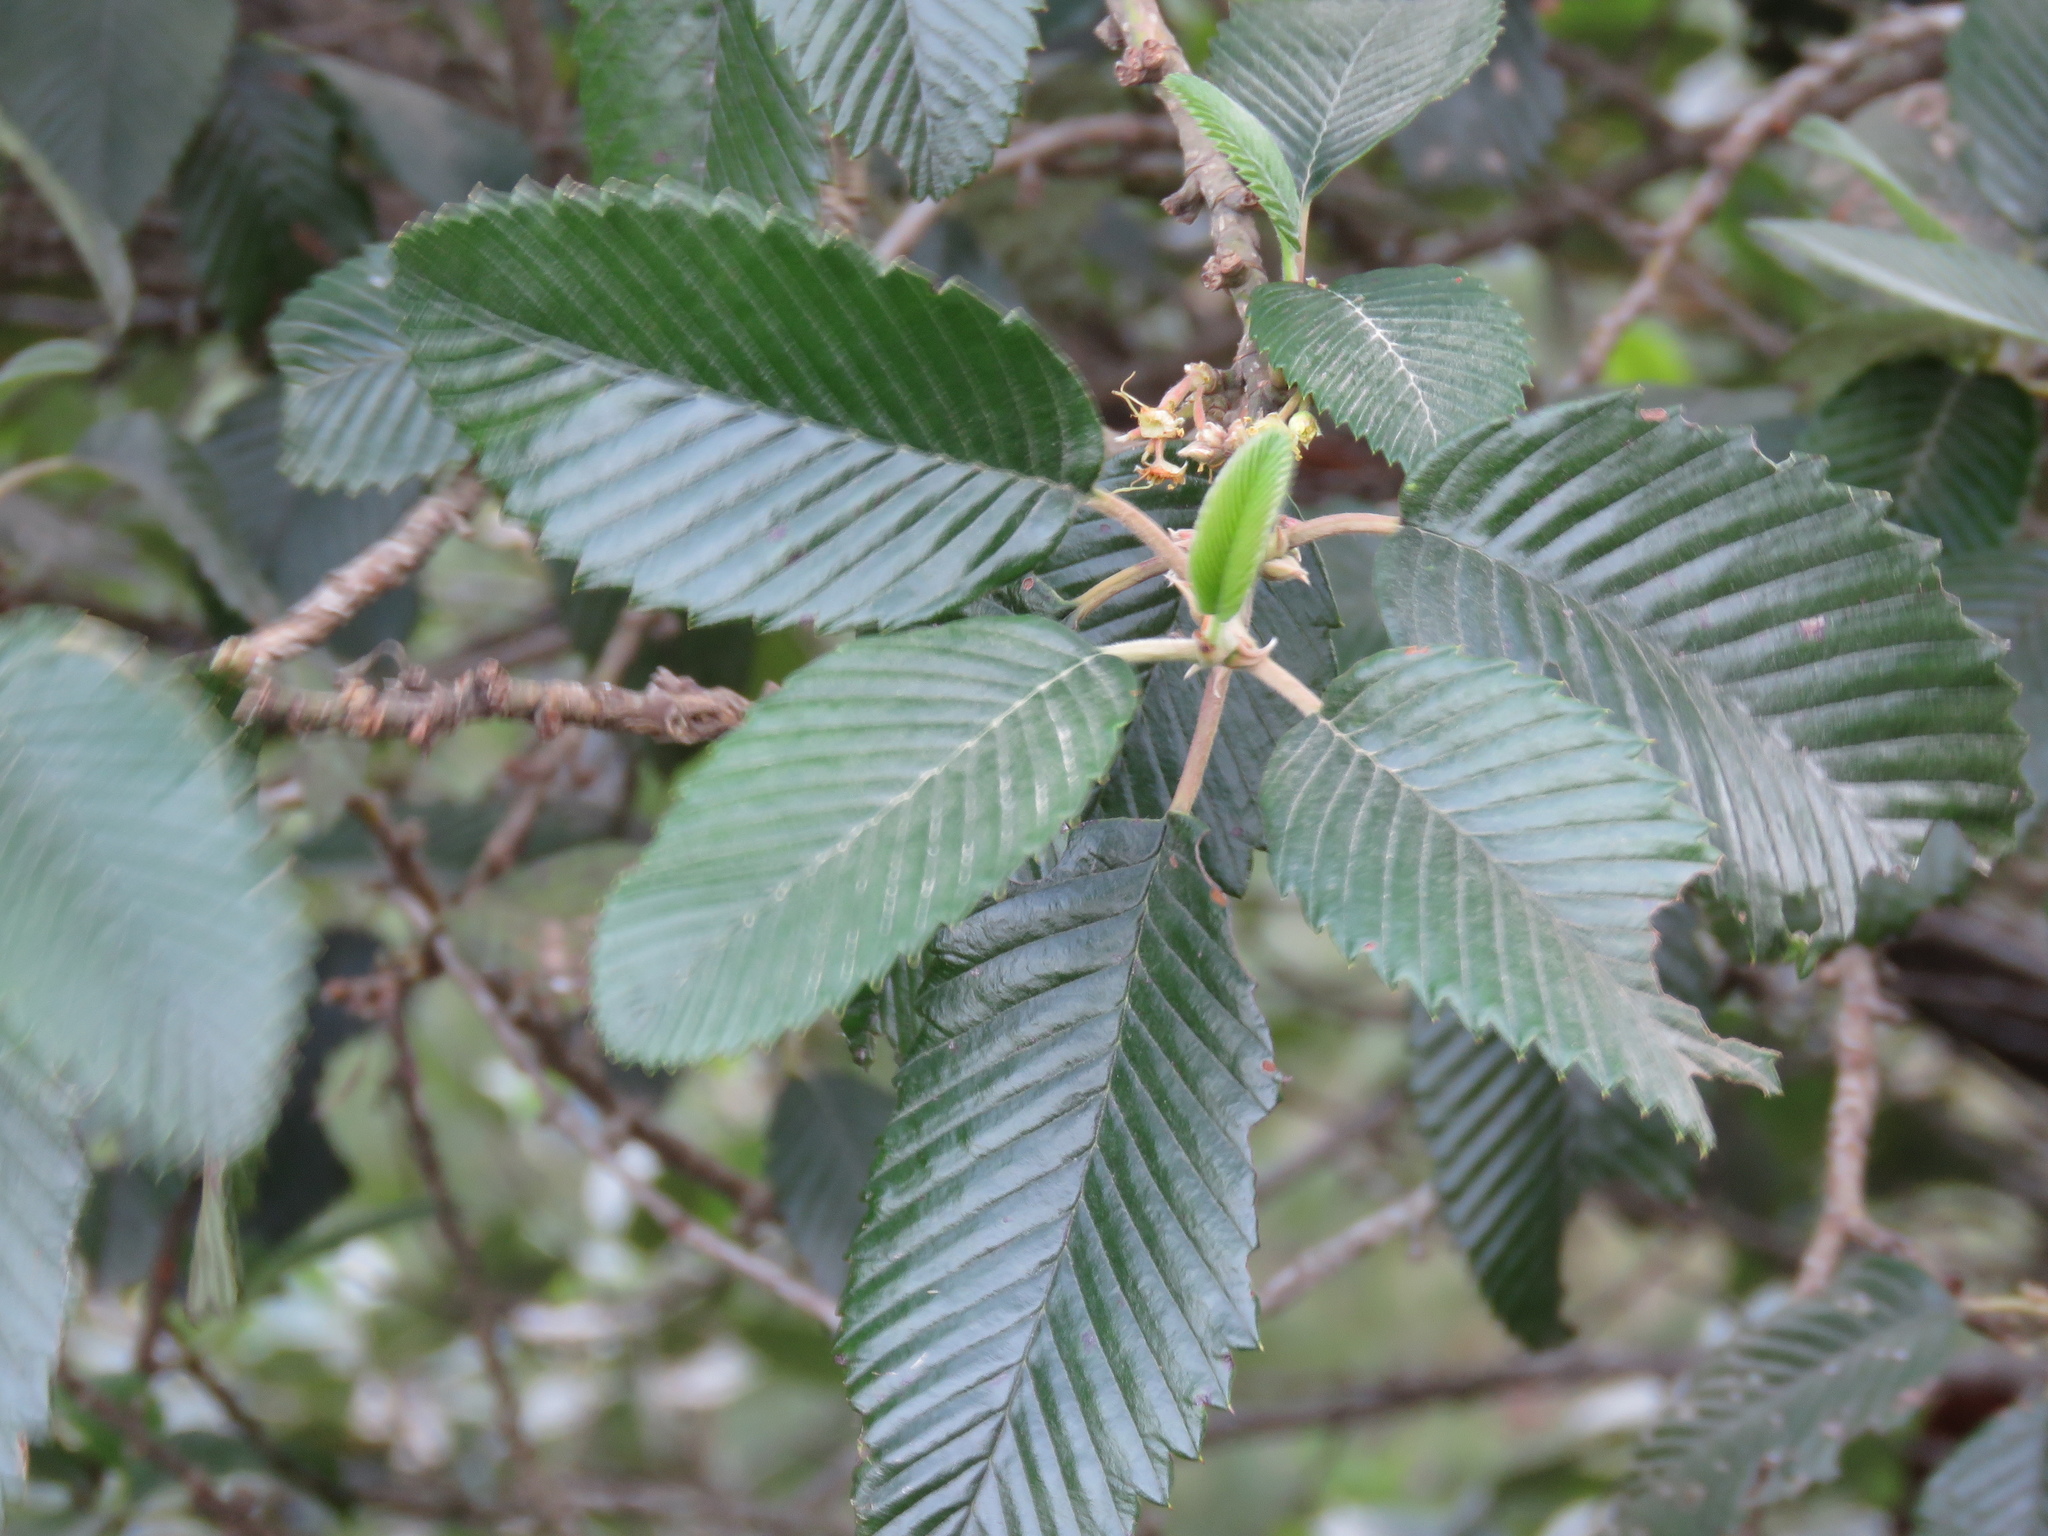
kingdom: Plantae
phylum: Tracheophyta
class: Magnoliopsida
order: Rosales
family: Rosaceae
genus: Cercocarpus
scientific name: Cercocarpus macrophyllus
